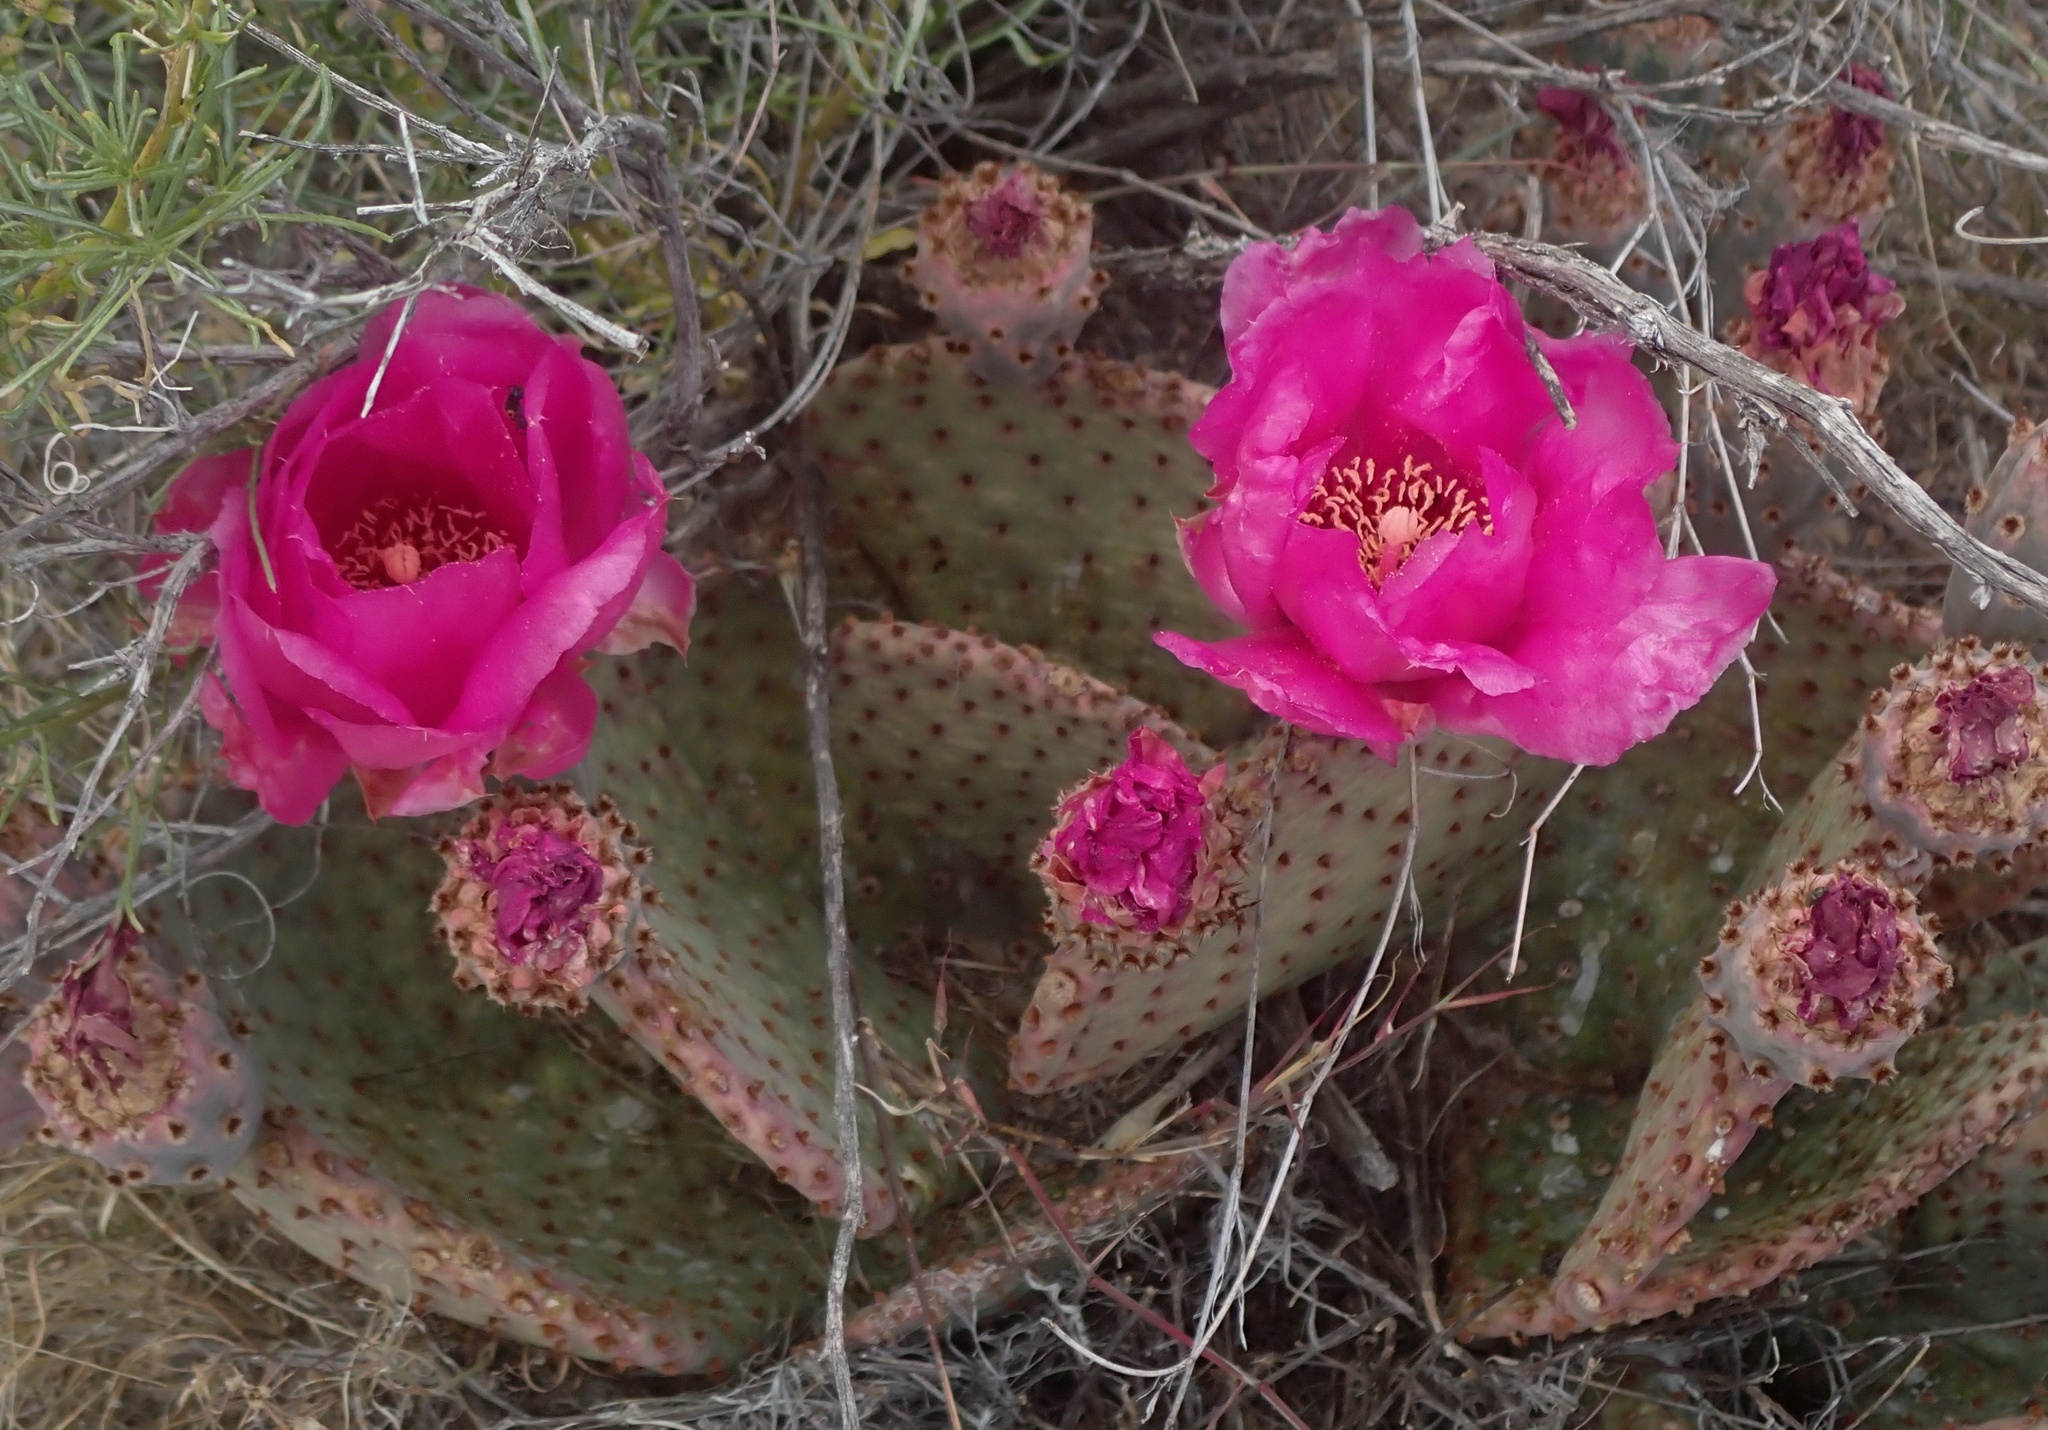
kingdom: Plantae
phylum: Tracheophyta
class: Magnoliopsida
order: Caryophyllales
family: Cactaceae
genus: Opuntia
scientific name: Opuntia basilaris
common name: Beavertail prickly-pear
